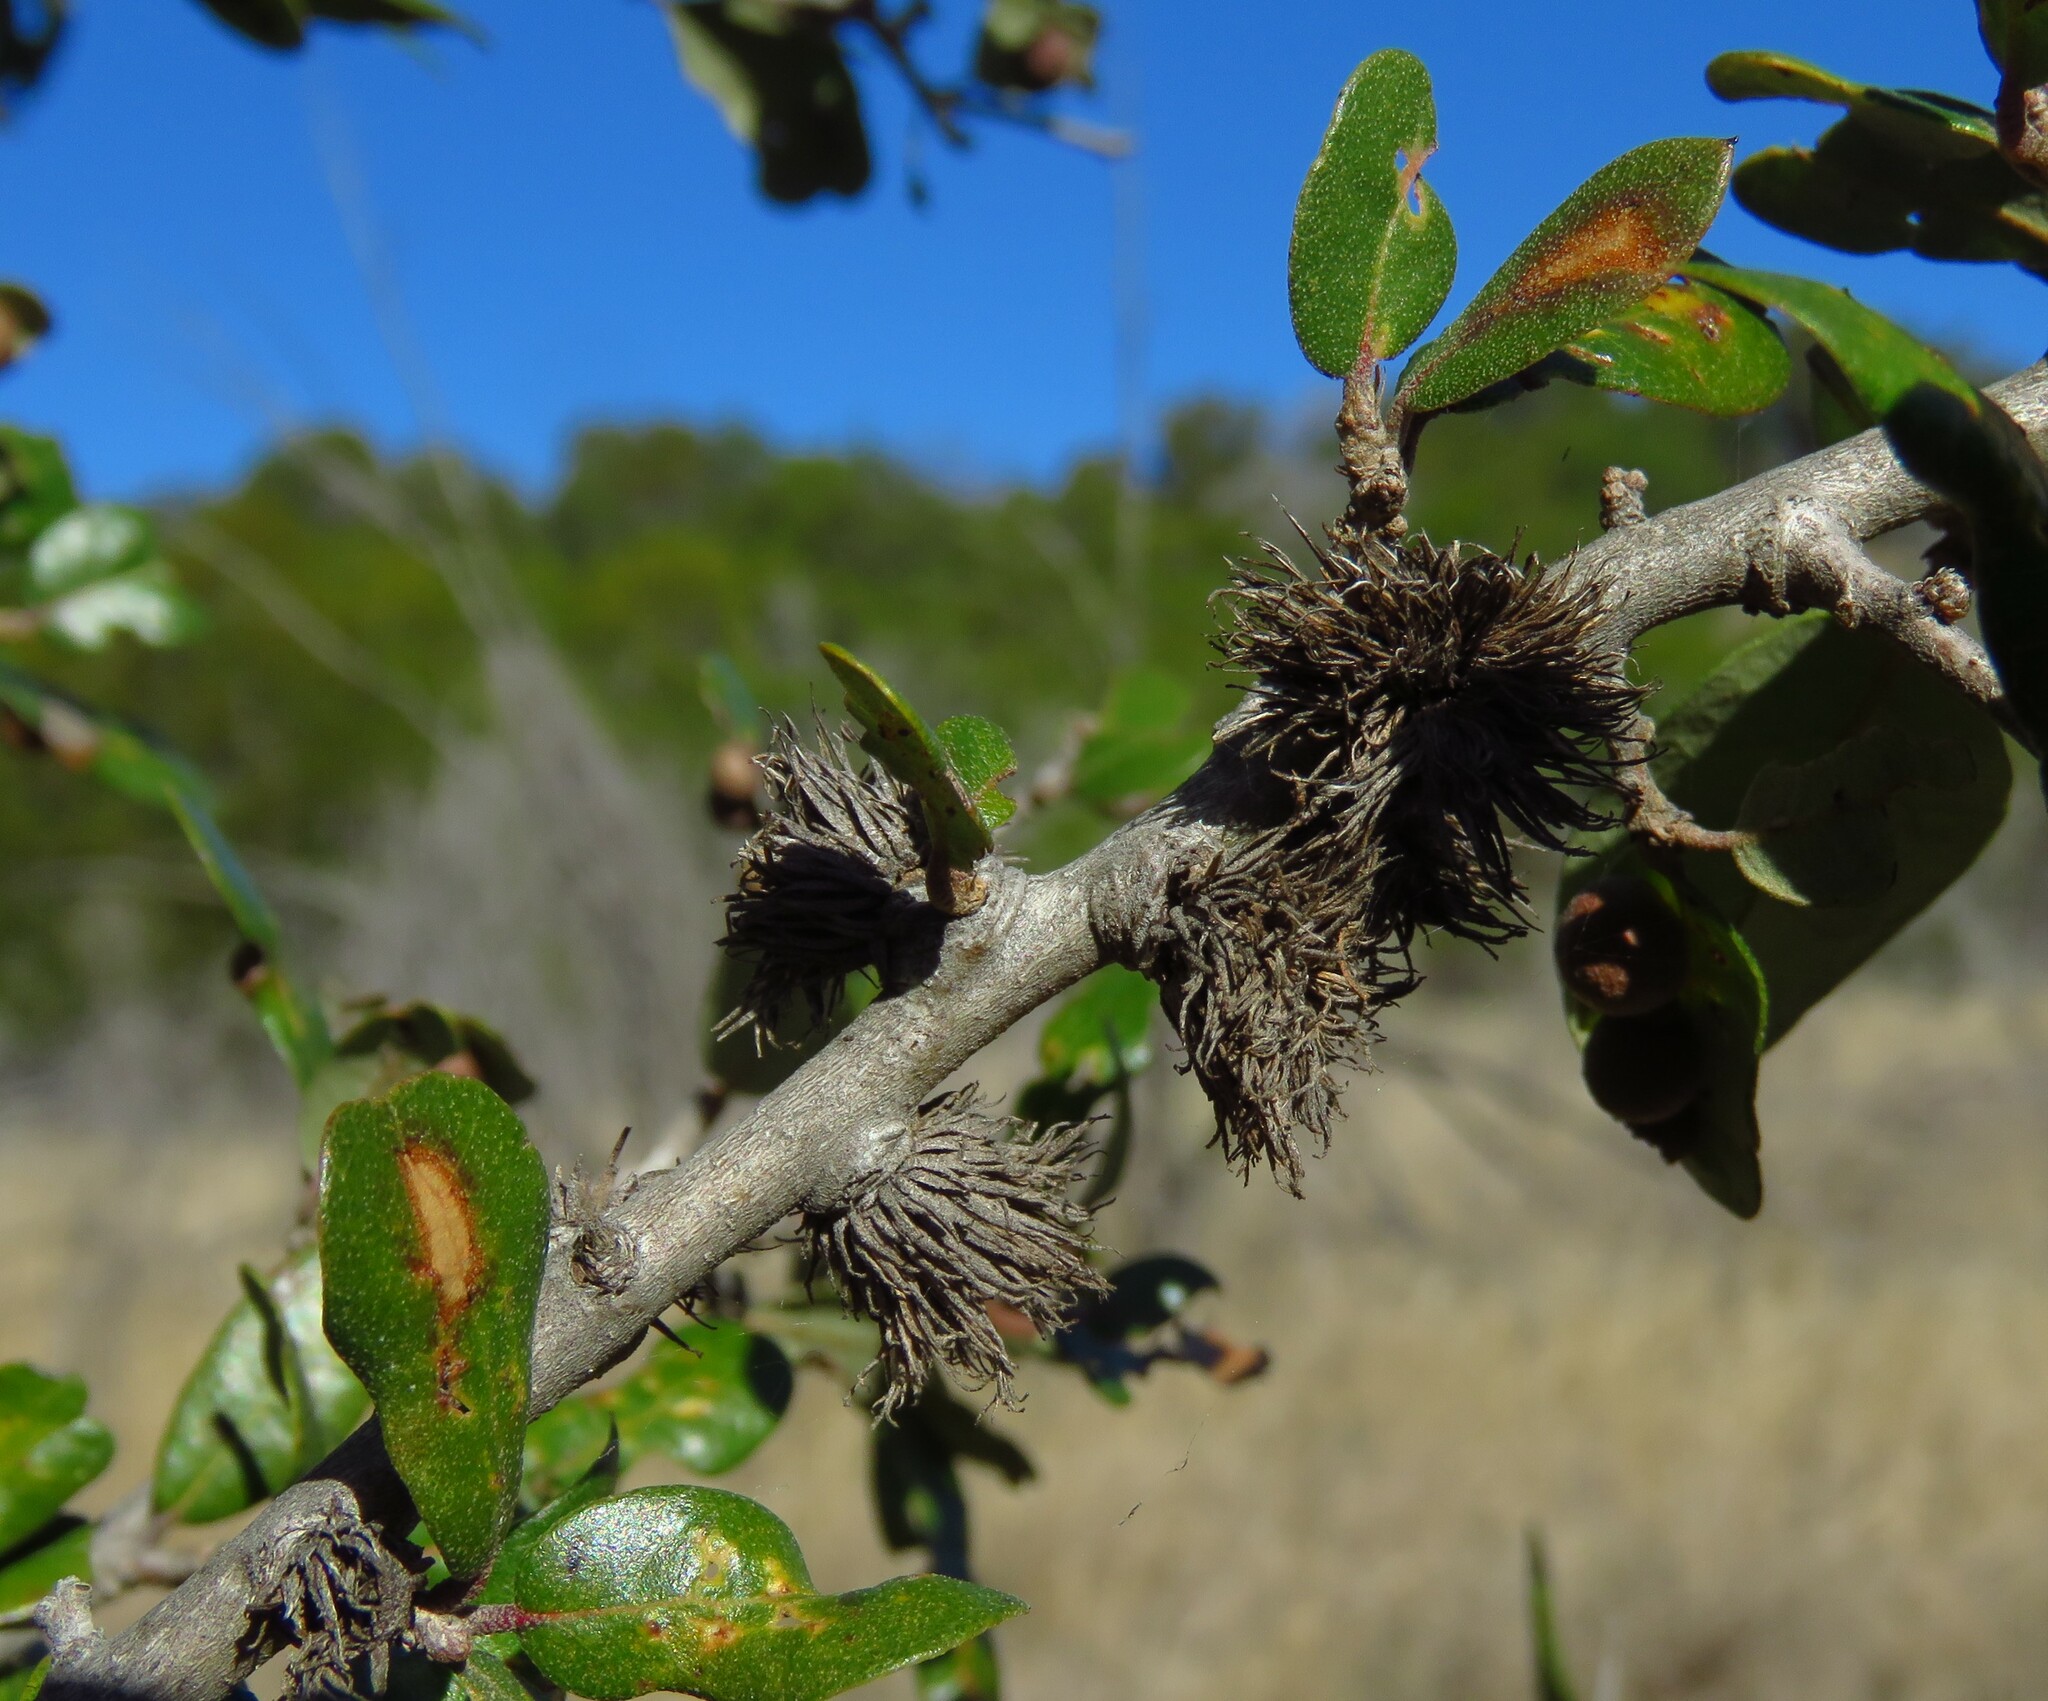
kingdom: Animalia
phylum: Arthropoda
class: Insecta
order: Hymenoptera
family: Cynipidae
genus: Andricus
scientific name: Andricus quercusfoliatus
